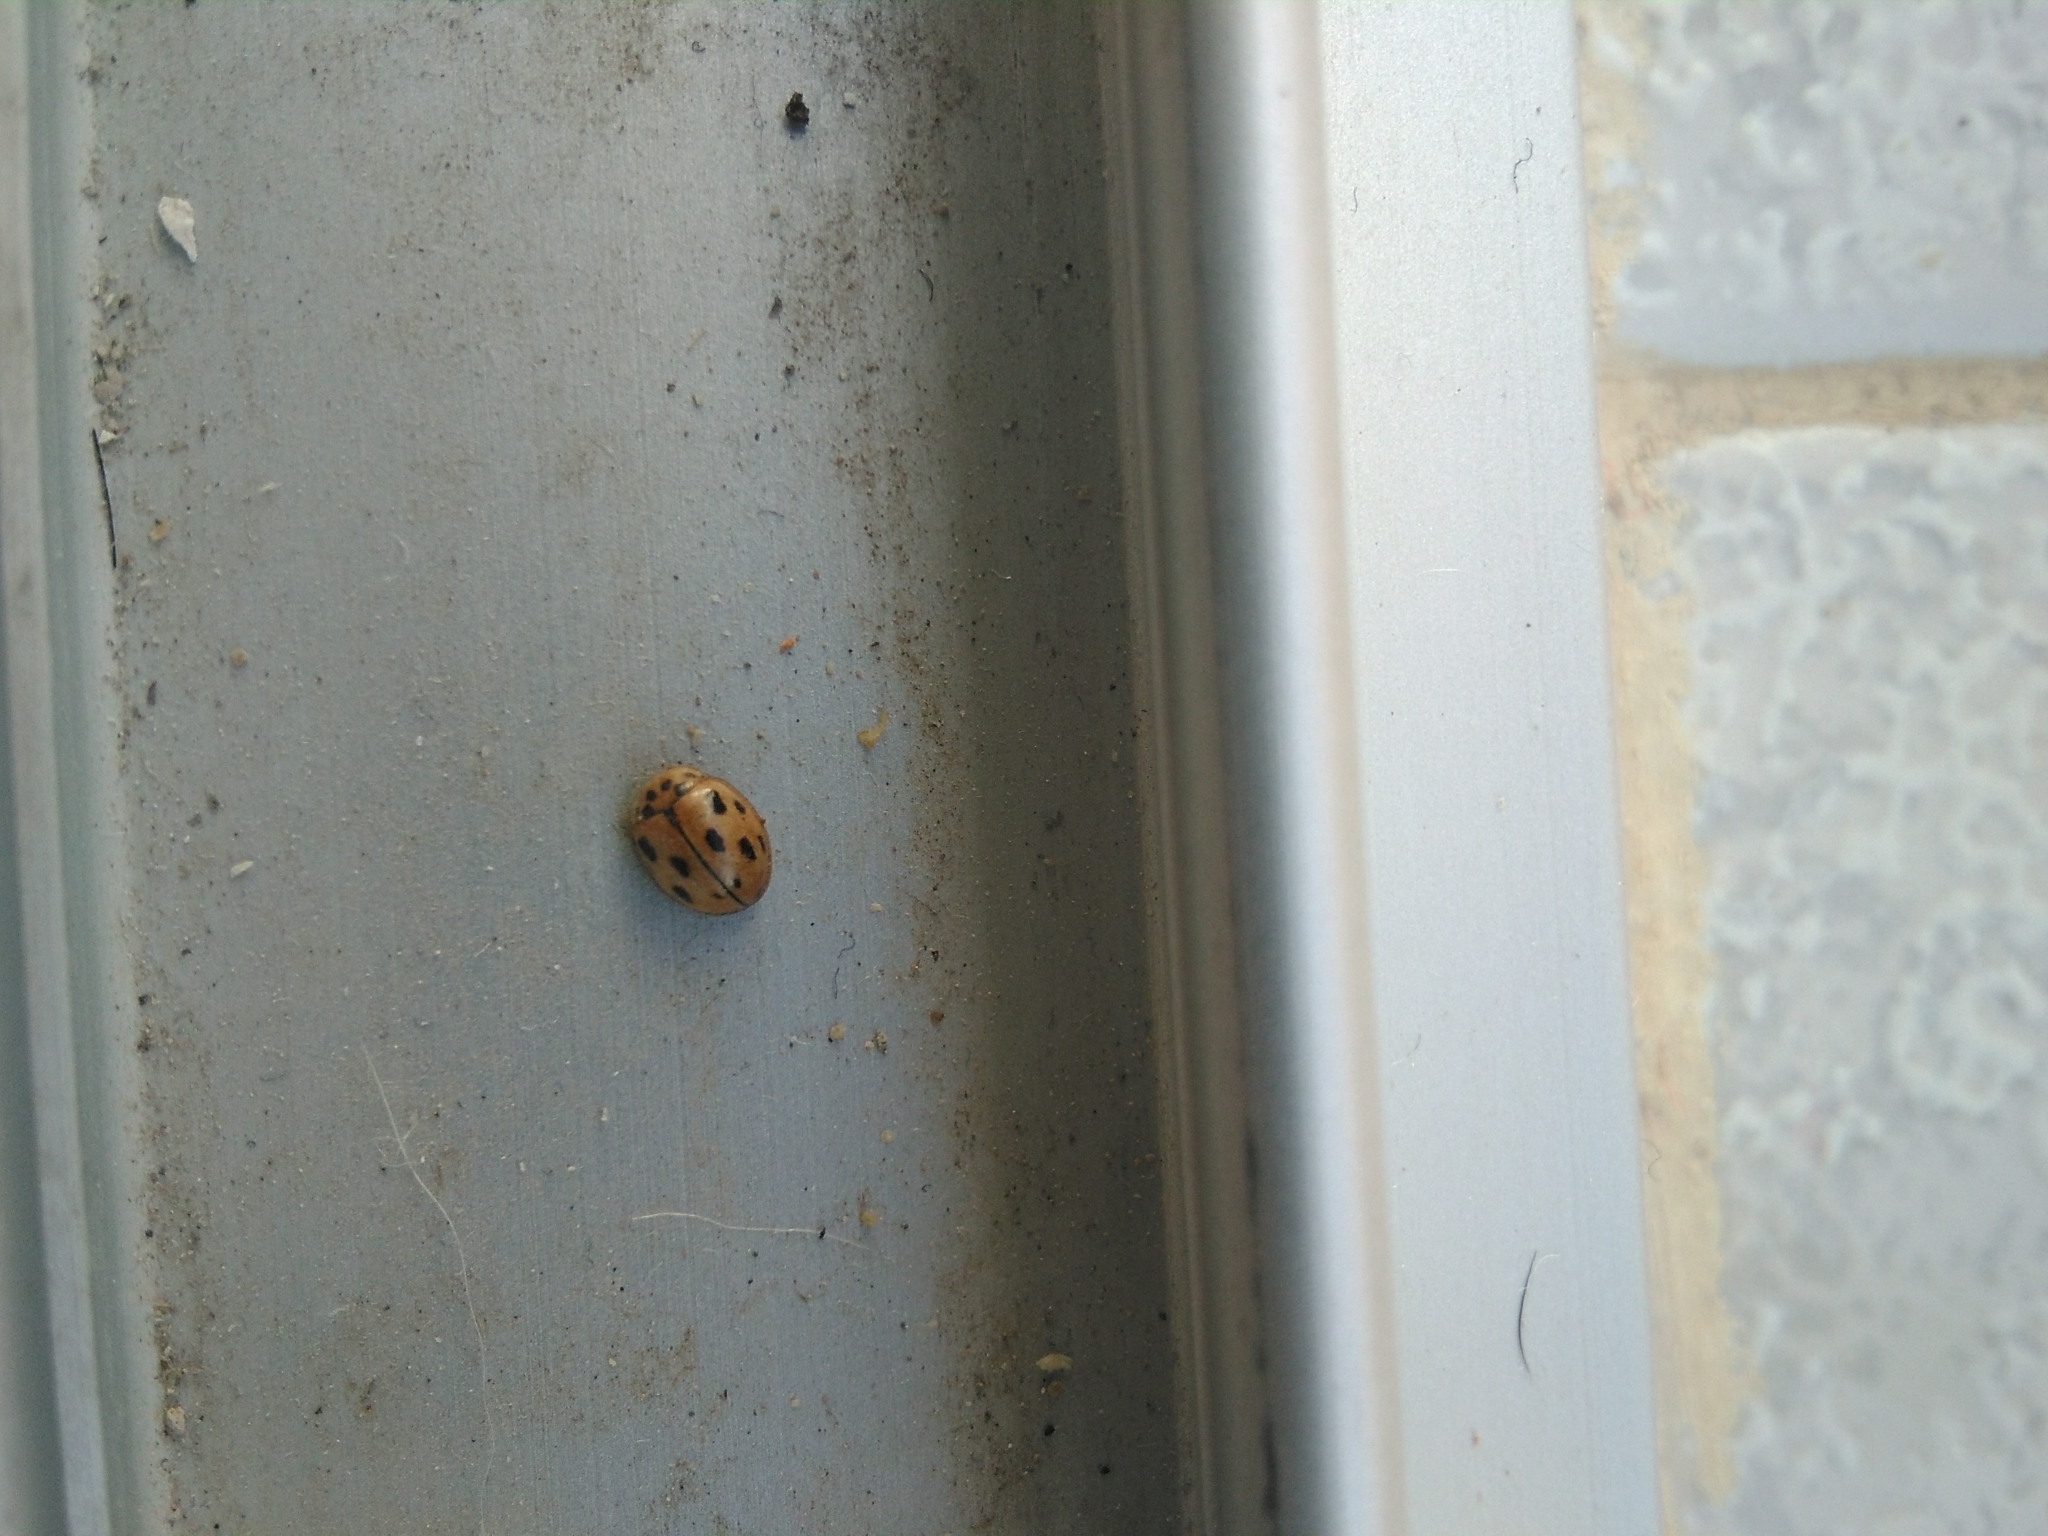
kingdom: Animalia
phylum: Arthropoda
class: Insecta
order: Coleoptera
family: Coccinellidae
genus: Propylaea
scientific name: Propylaea quatuordecimpunctata
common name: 14-spotted ladybird beetle
